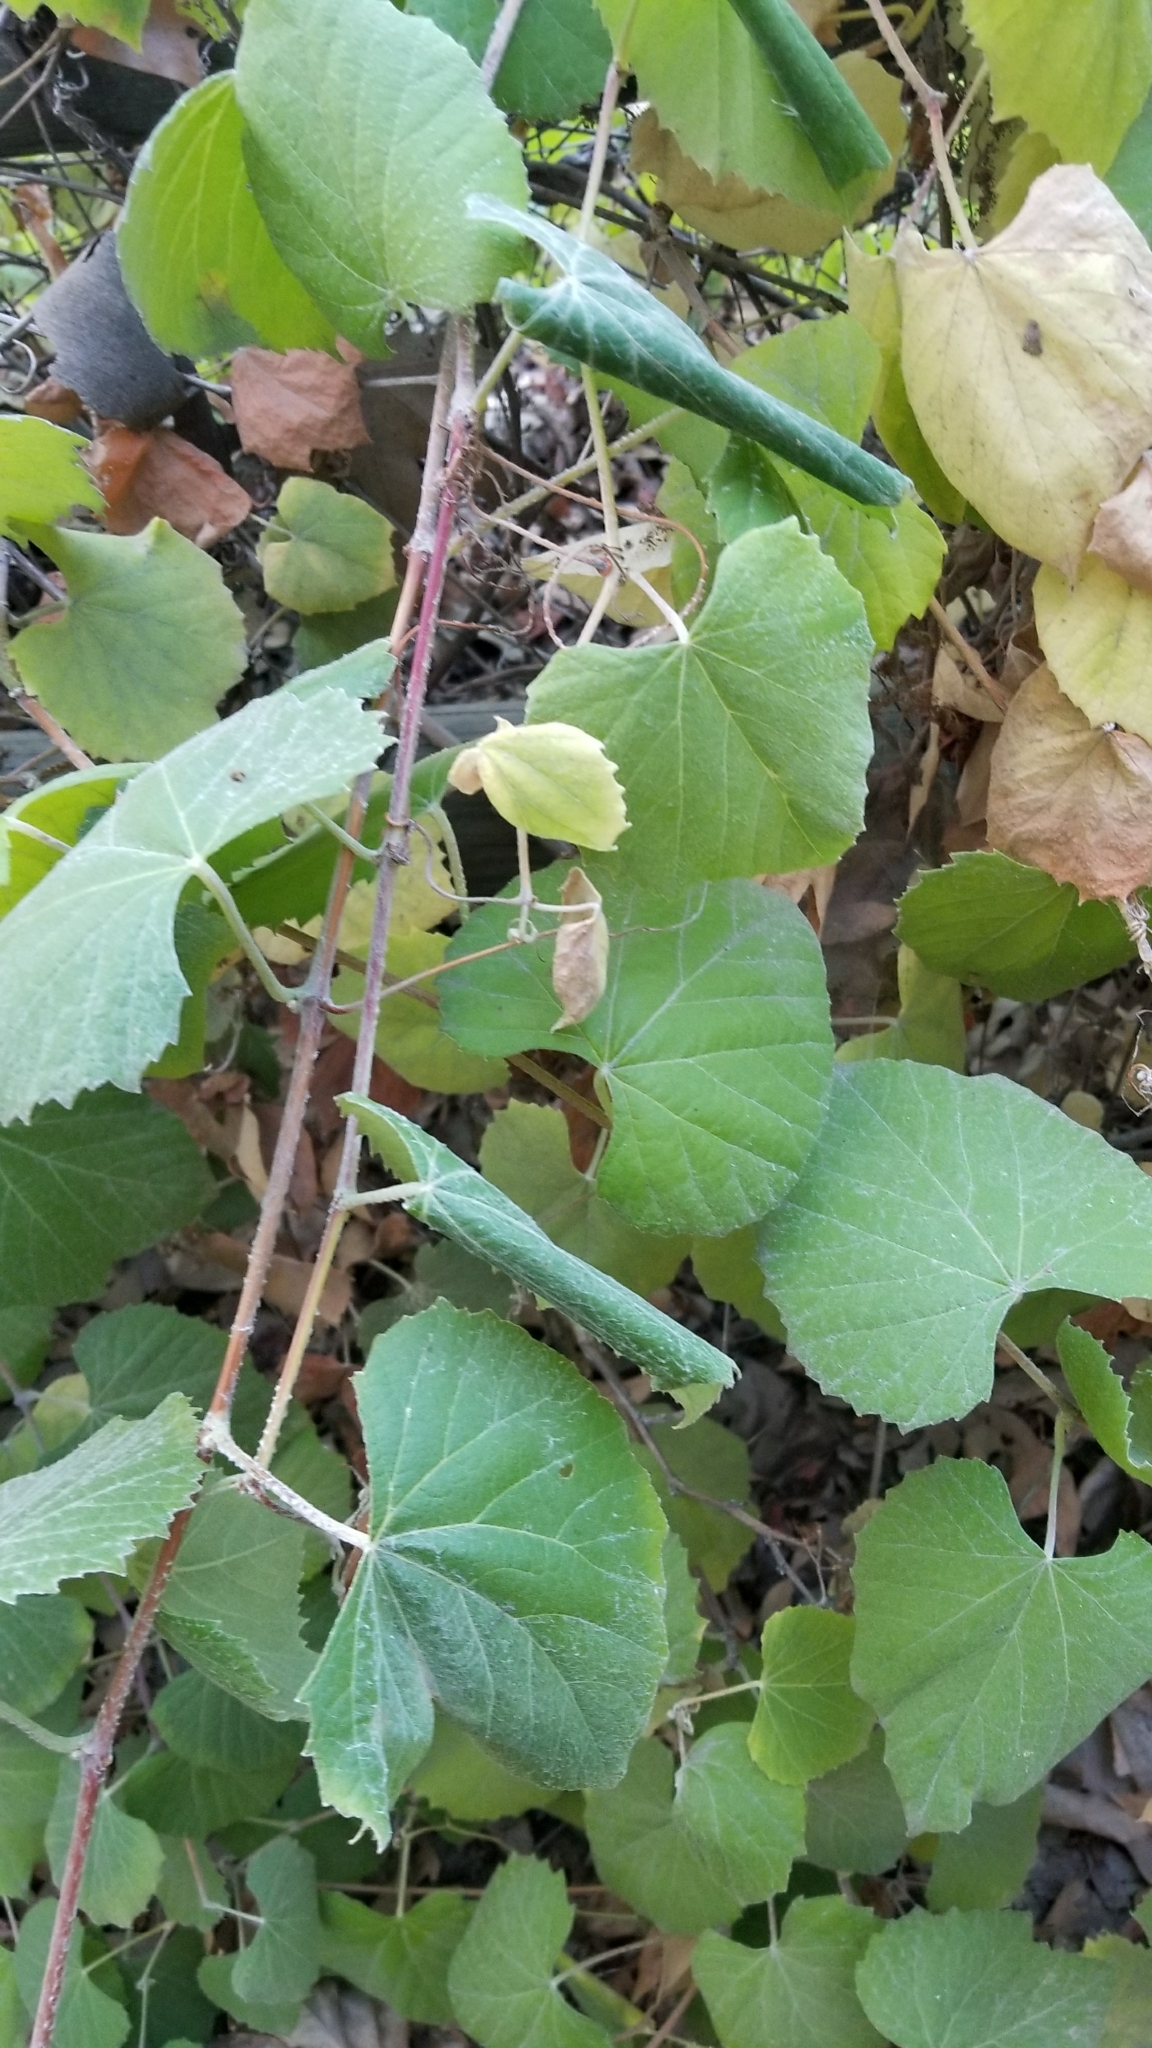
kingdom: Plantae
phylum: Tracheophyta
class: Magnoliopsida
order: Vitales
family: Vitaceae
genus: Vitis
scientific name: Vitis californica
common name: California wild grape
